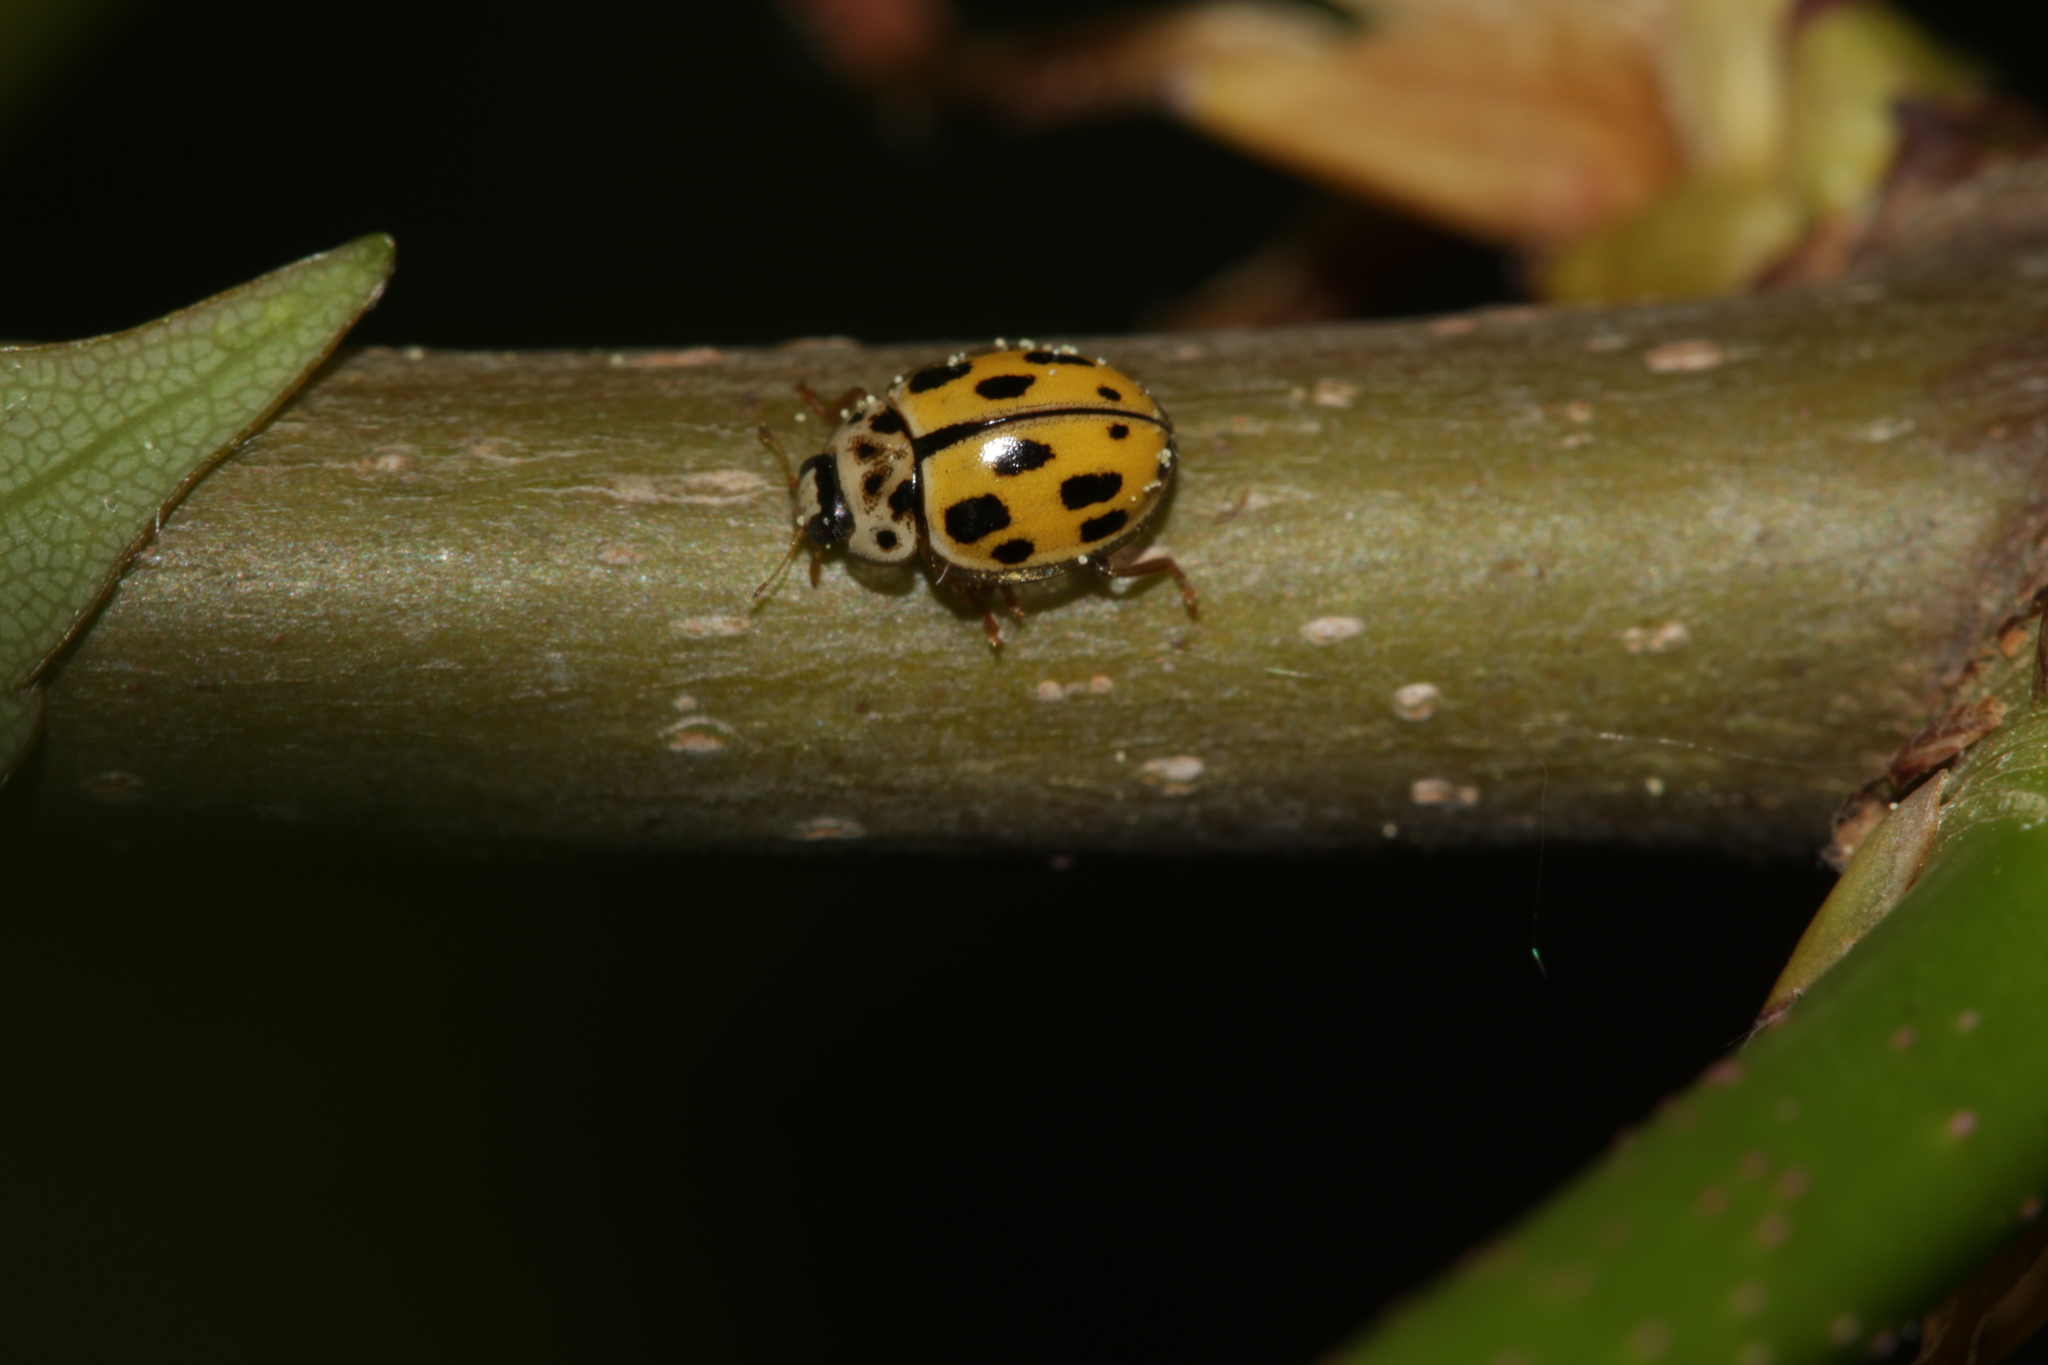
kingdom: Animalia
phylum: Arthropoda
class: Insecta
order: Coleoptera
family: Coccinellidae
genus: Propylaea
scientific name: Propylaea quatuordecimpunctata
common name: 14-spotted ladybird beetle
